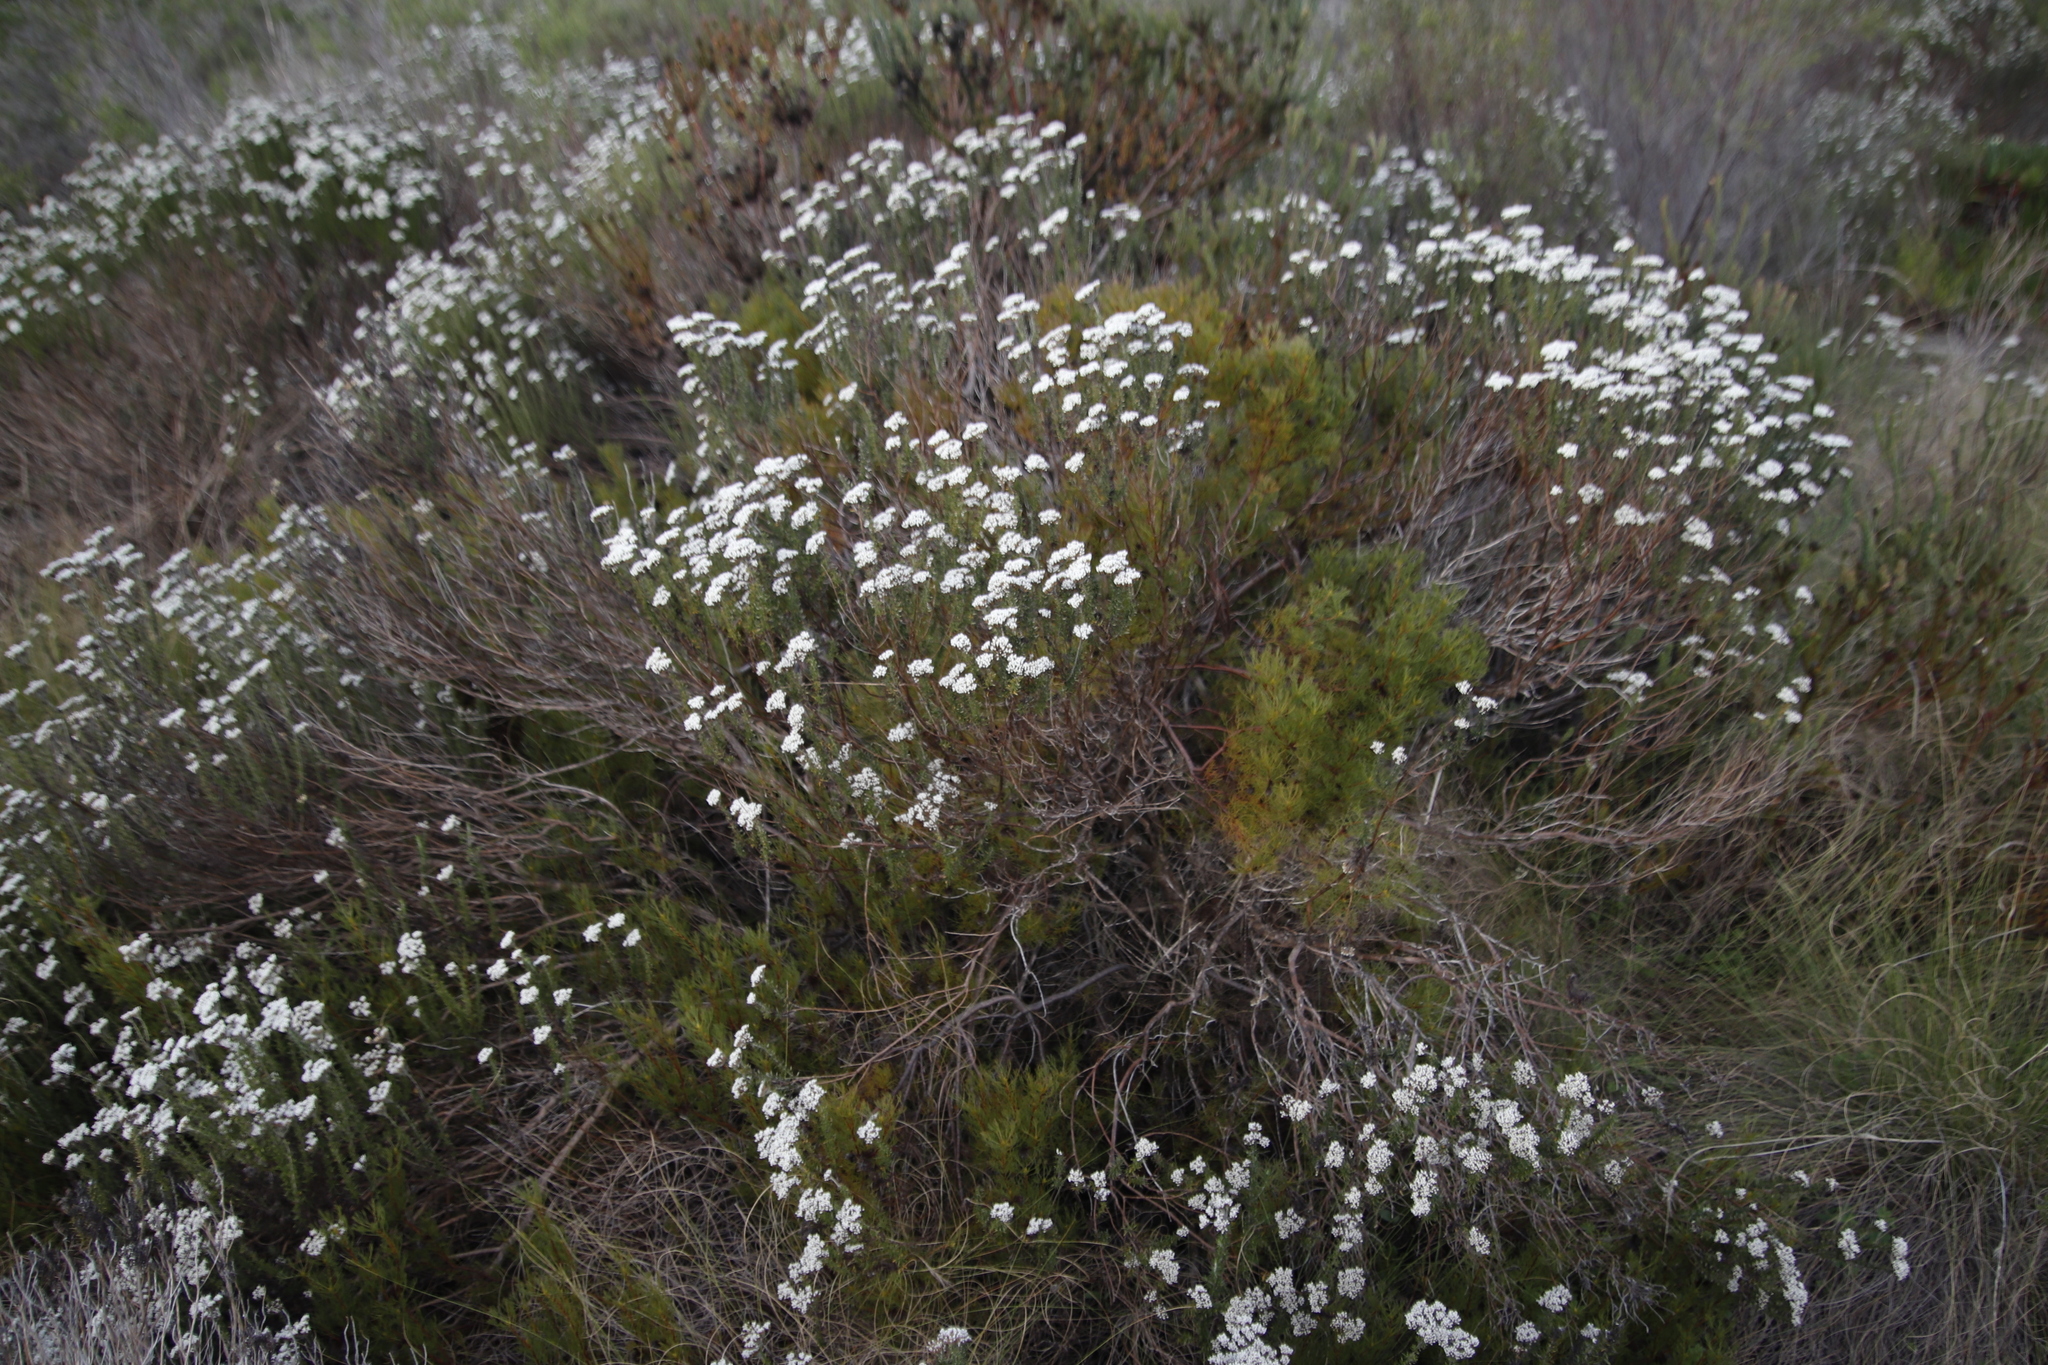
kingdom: Plantae
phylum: Tracheophyta
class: Magnoliopsida
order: Asterales
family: Asteraceae
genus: Metalasia
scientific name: Metalasia densa
